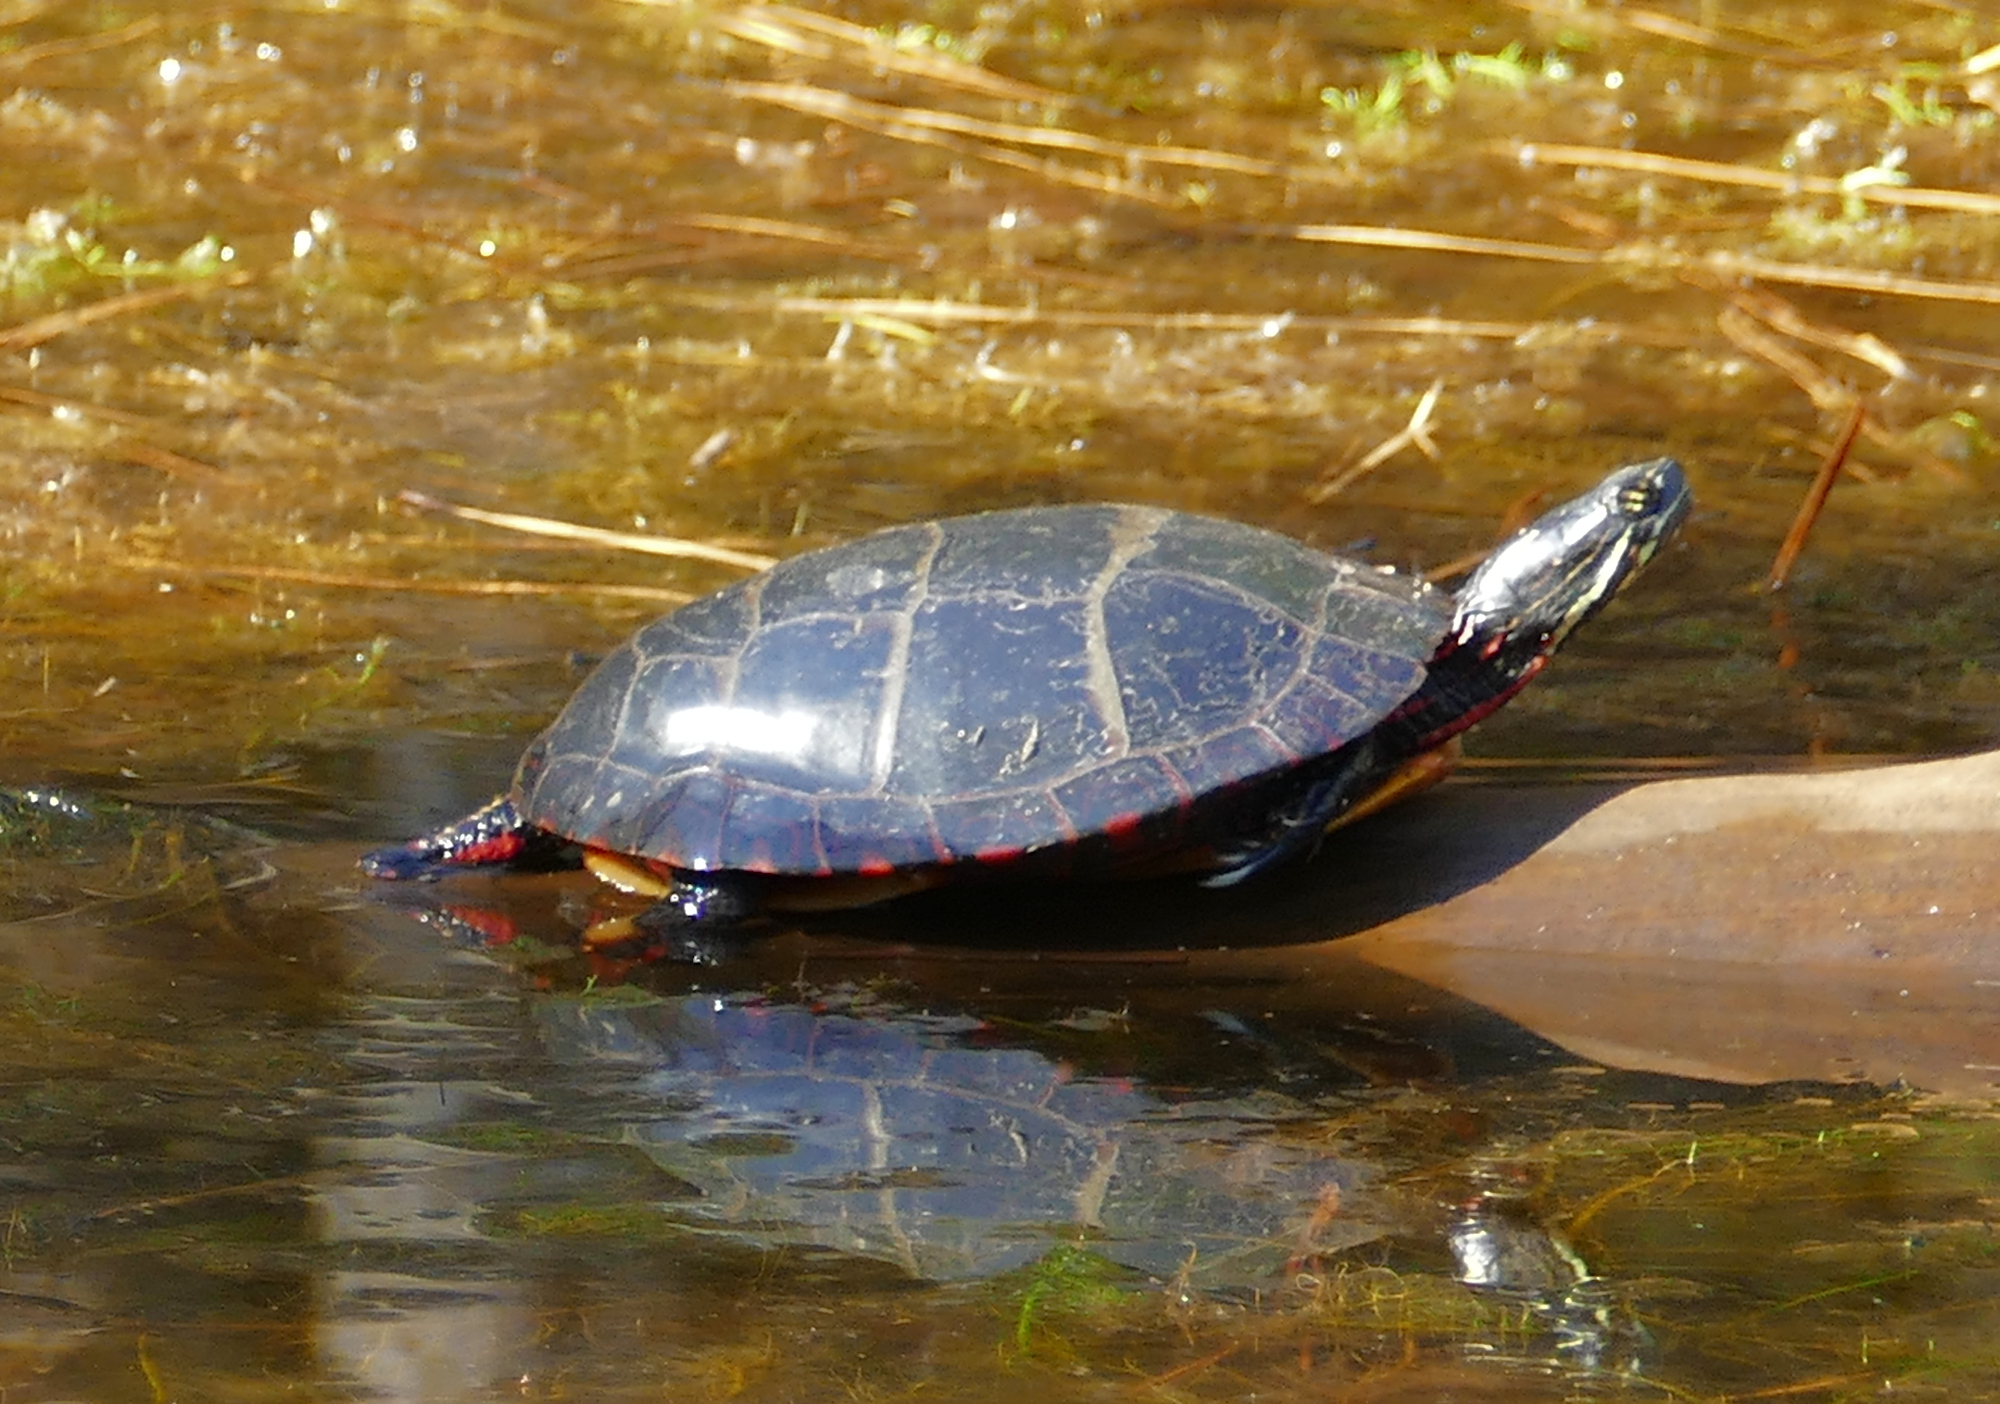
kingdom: Animalia
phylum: Chordata
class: Testudines
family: Emydidae
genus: Chrysemys
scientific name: Chrysemys picta
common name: Painted turtle
